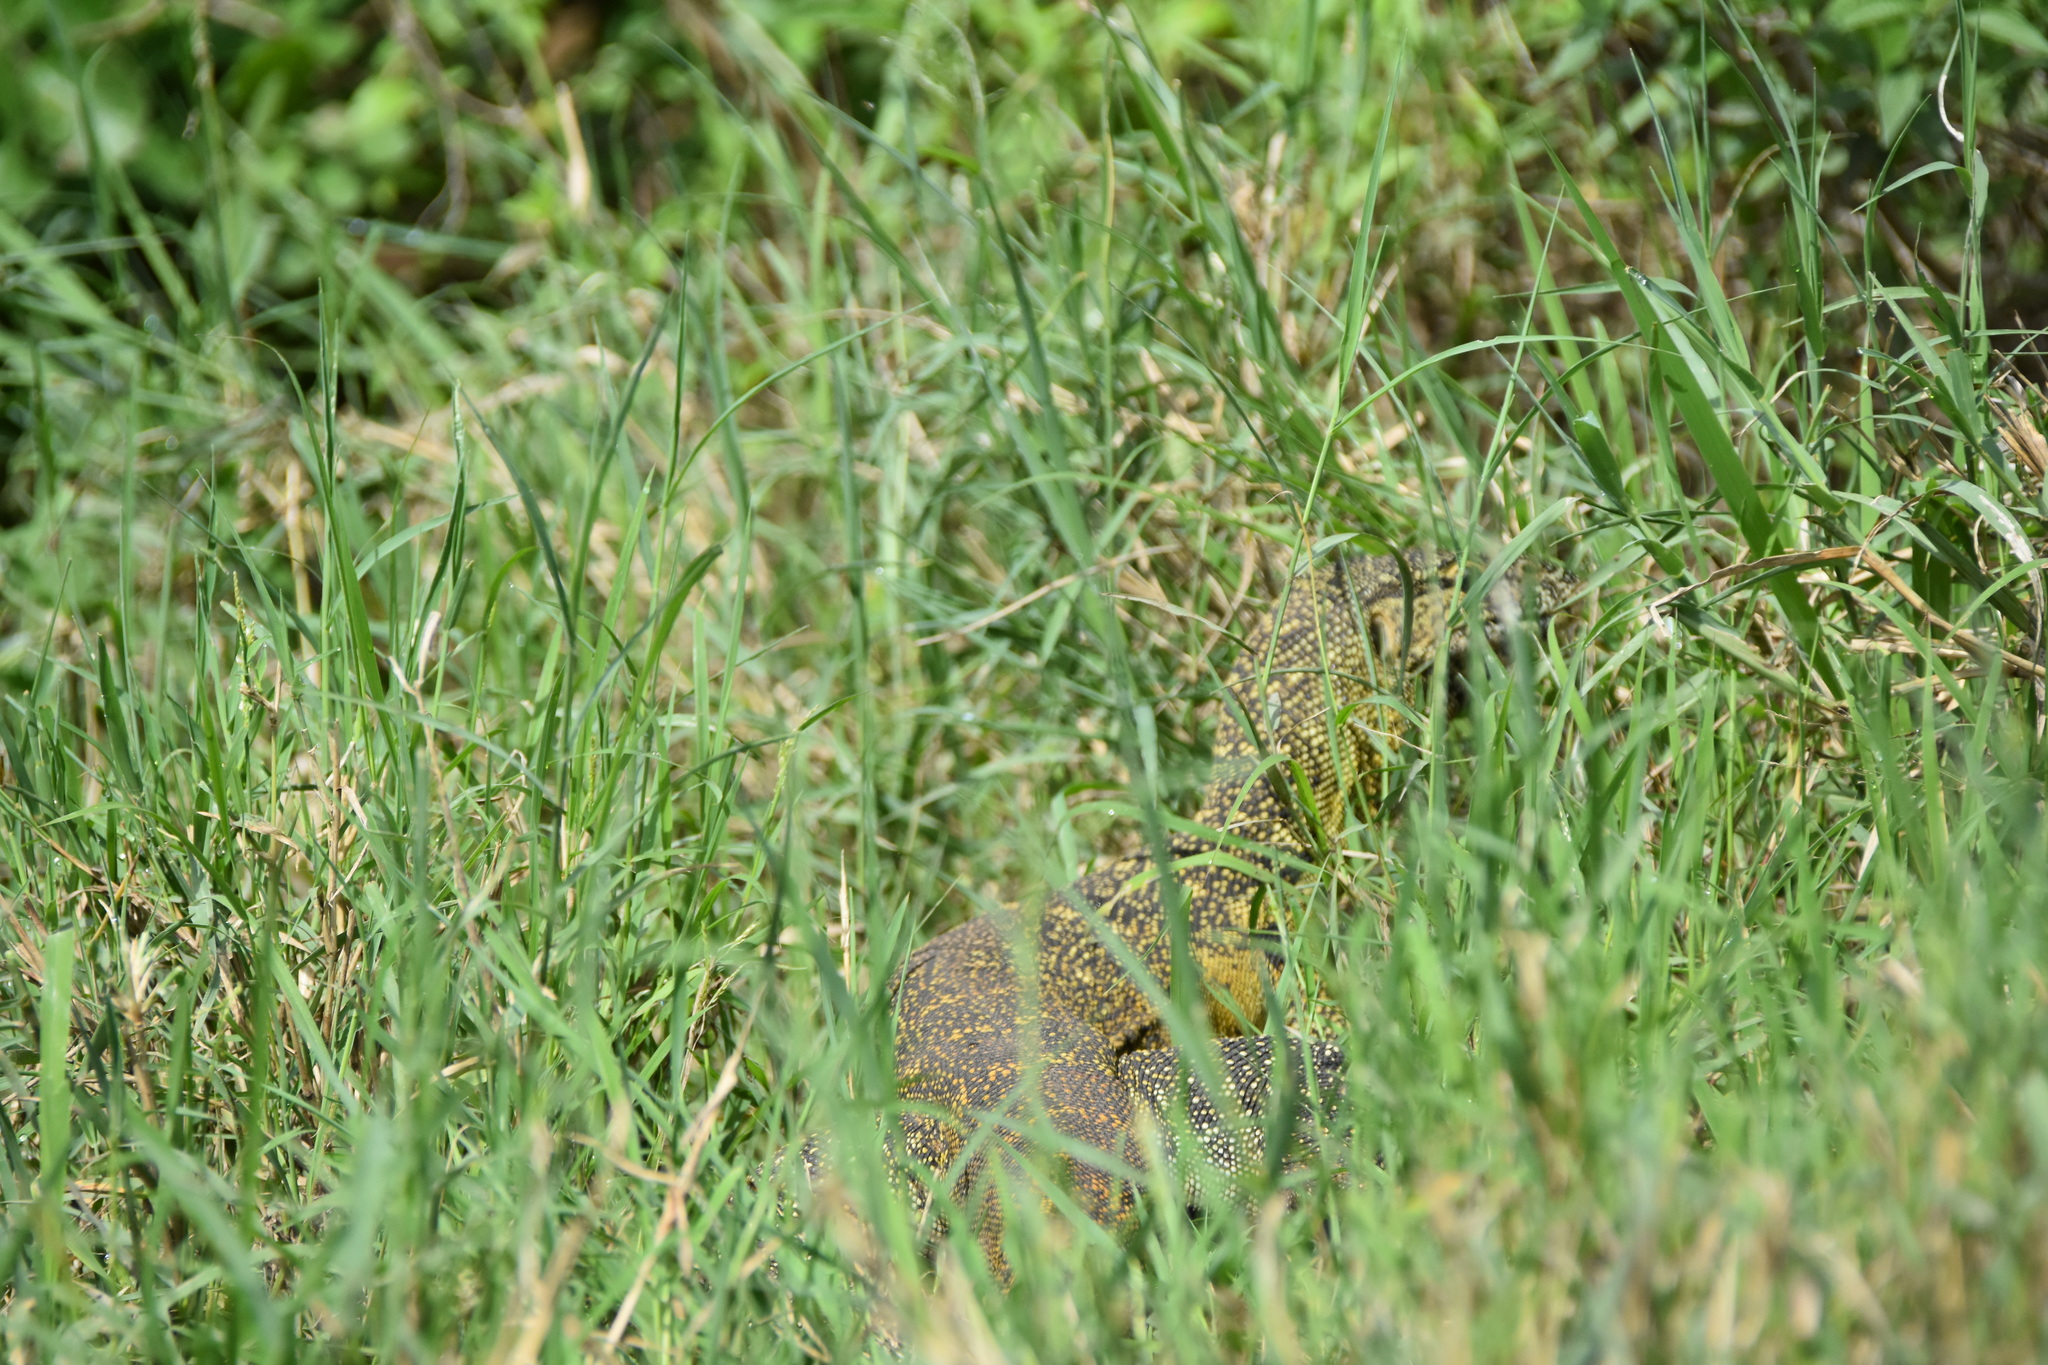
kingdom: Animalia
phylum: Chordata
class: Squamata
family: Varanidae
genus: Varanus
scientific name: Varanus niloticus
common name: Nile monitor
